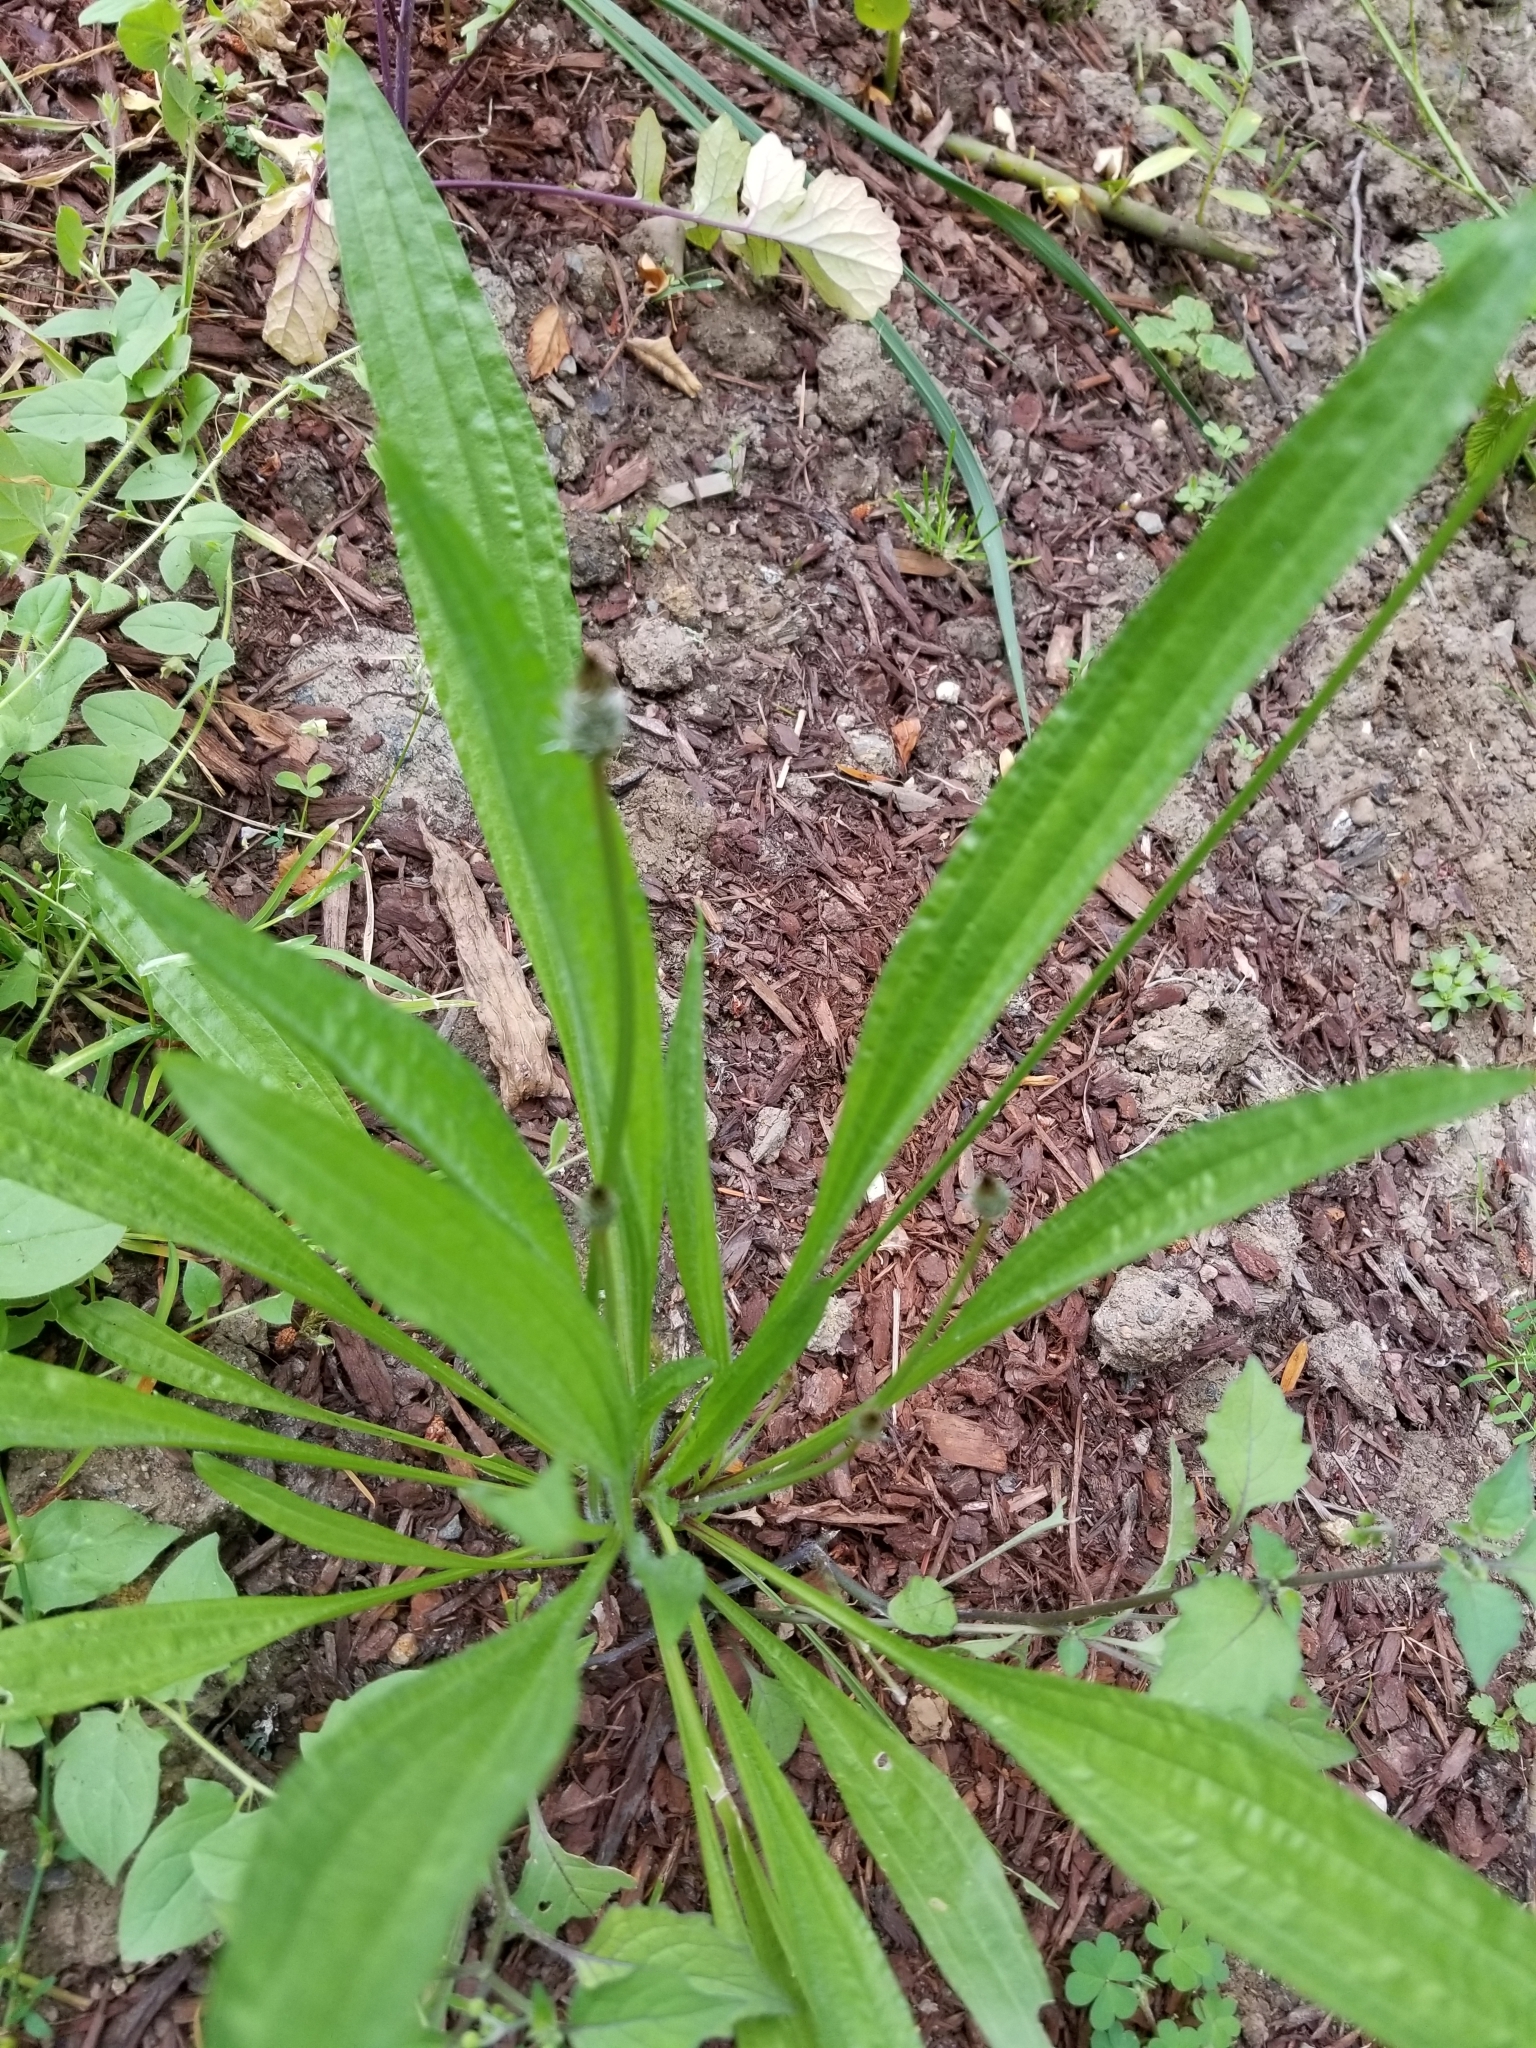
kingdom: Plantae
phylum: Tracheophyta
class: Magnoliopsida
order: Lamiales
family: Plantaginaceae
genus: Plantago
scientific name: Plantago lanceolata
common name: Ribwort plantain
